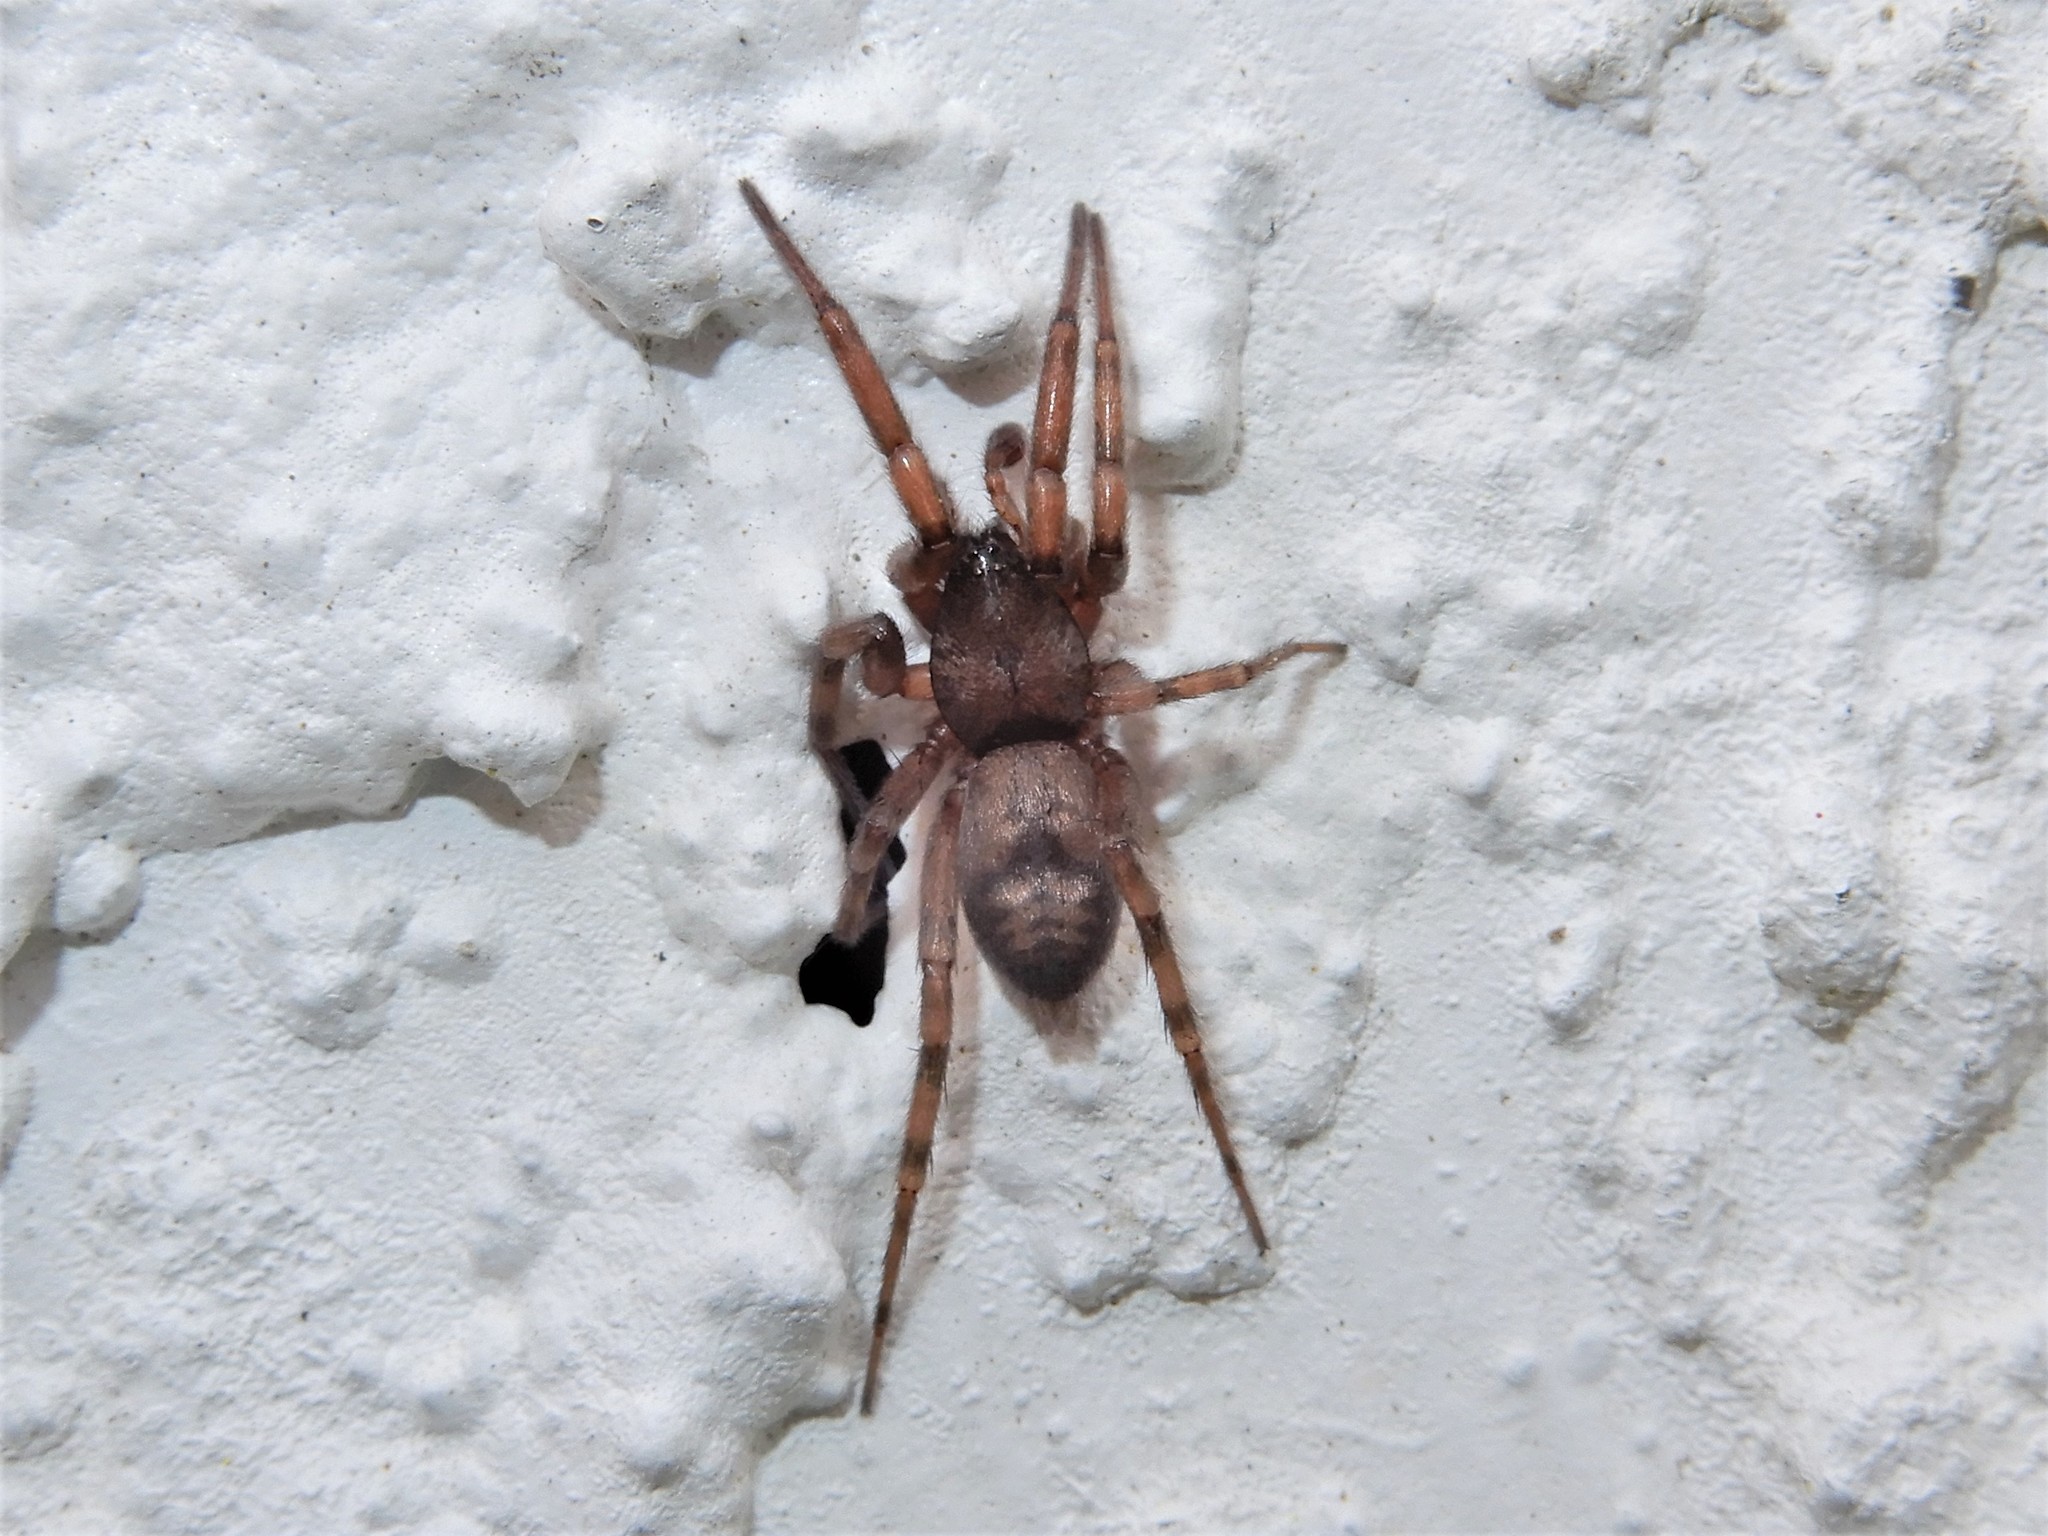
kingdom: Animalia
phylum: Arthropoda
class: Arachnida
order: Araneae
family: Gnaphosidae
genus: Intruda
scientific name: Intruda signata
